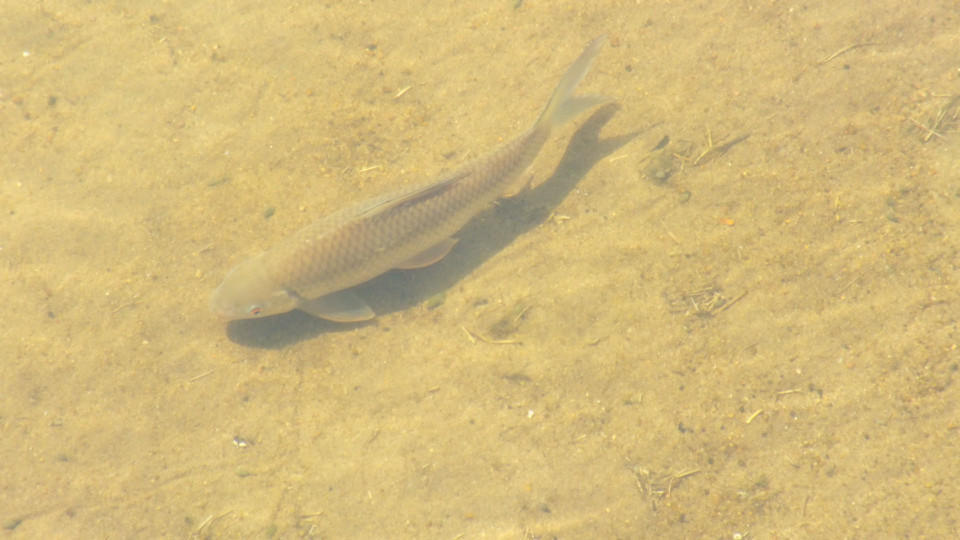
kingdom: Animalia
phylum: Chordata
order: Cypriniformes
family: Cyprinidae
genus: Labeo
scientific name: Labeo rosae
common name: Rednose labeo
